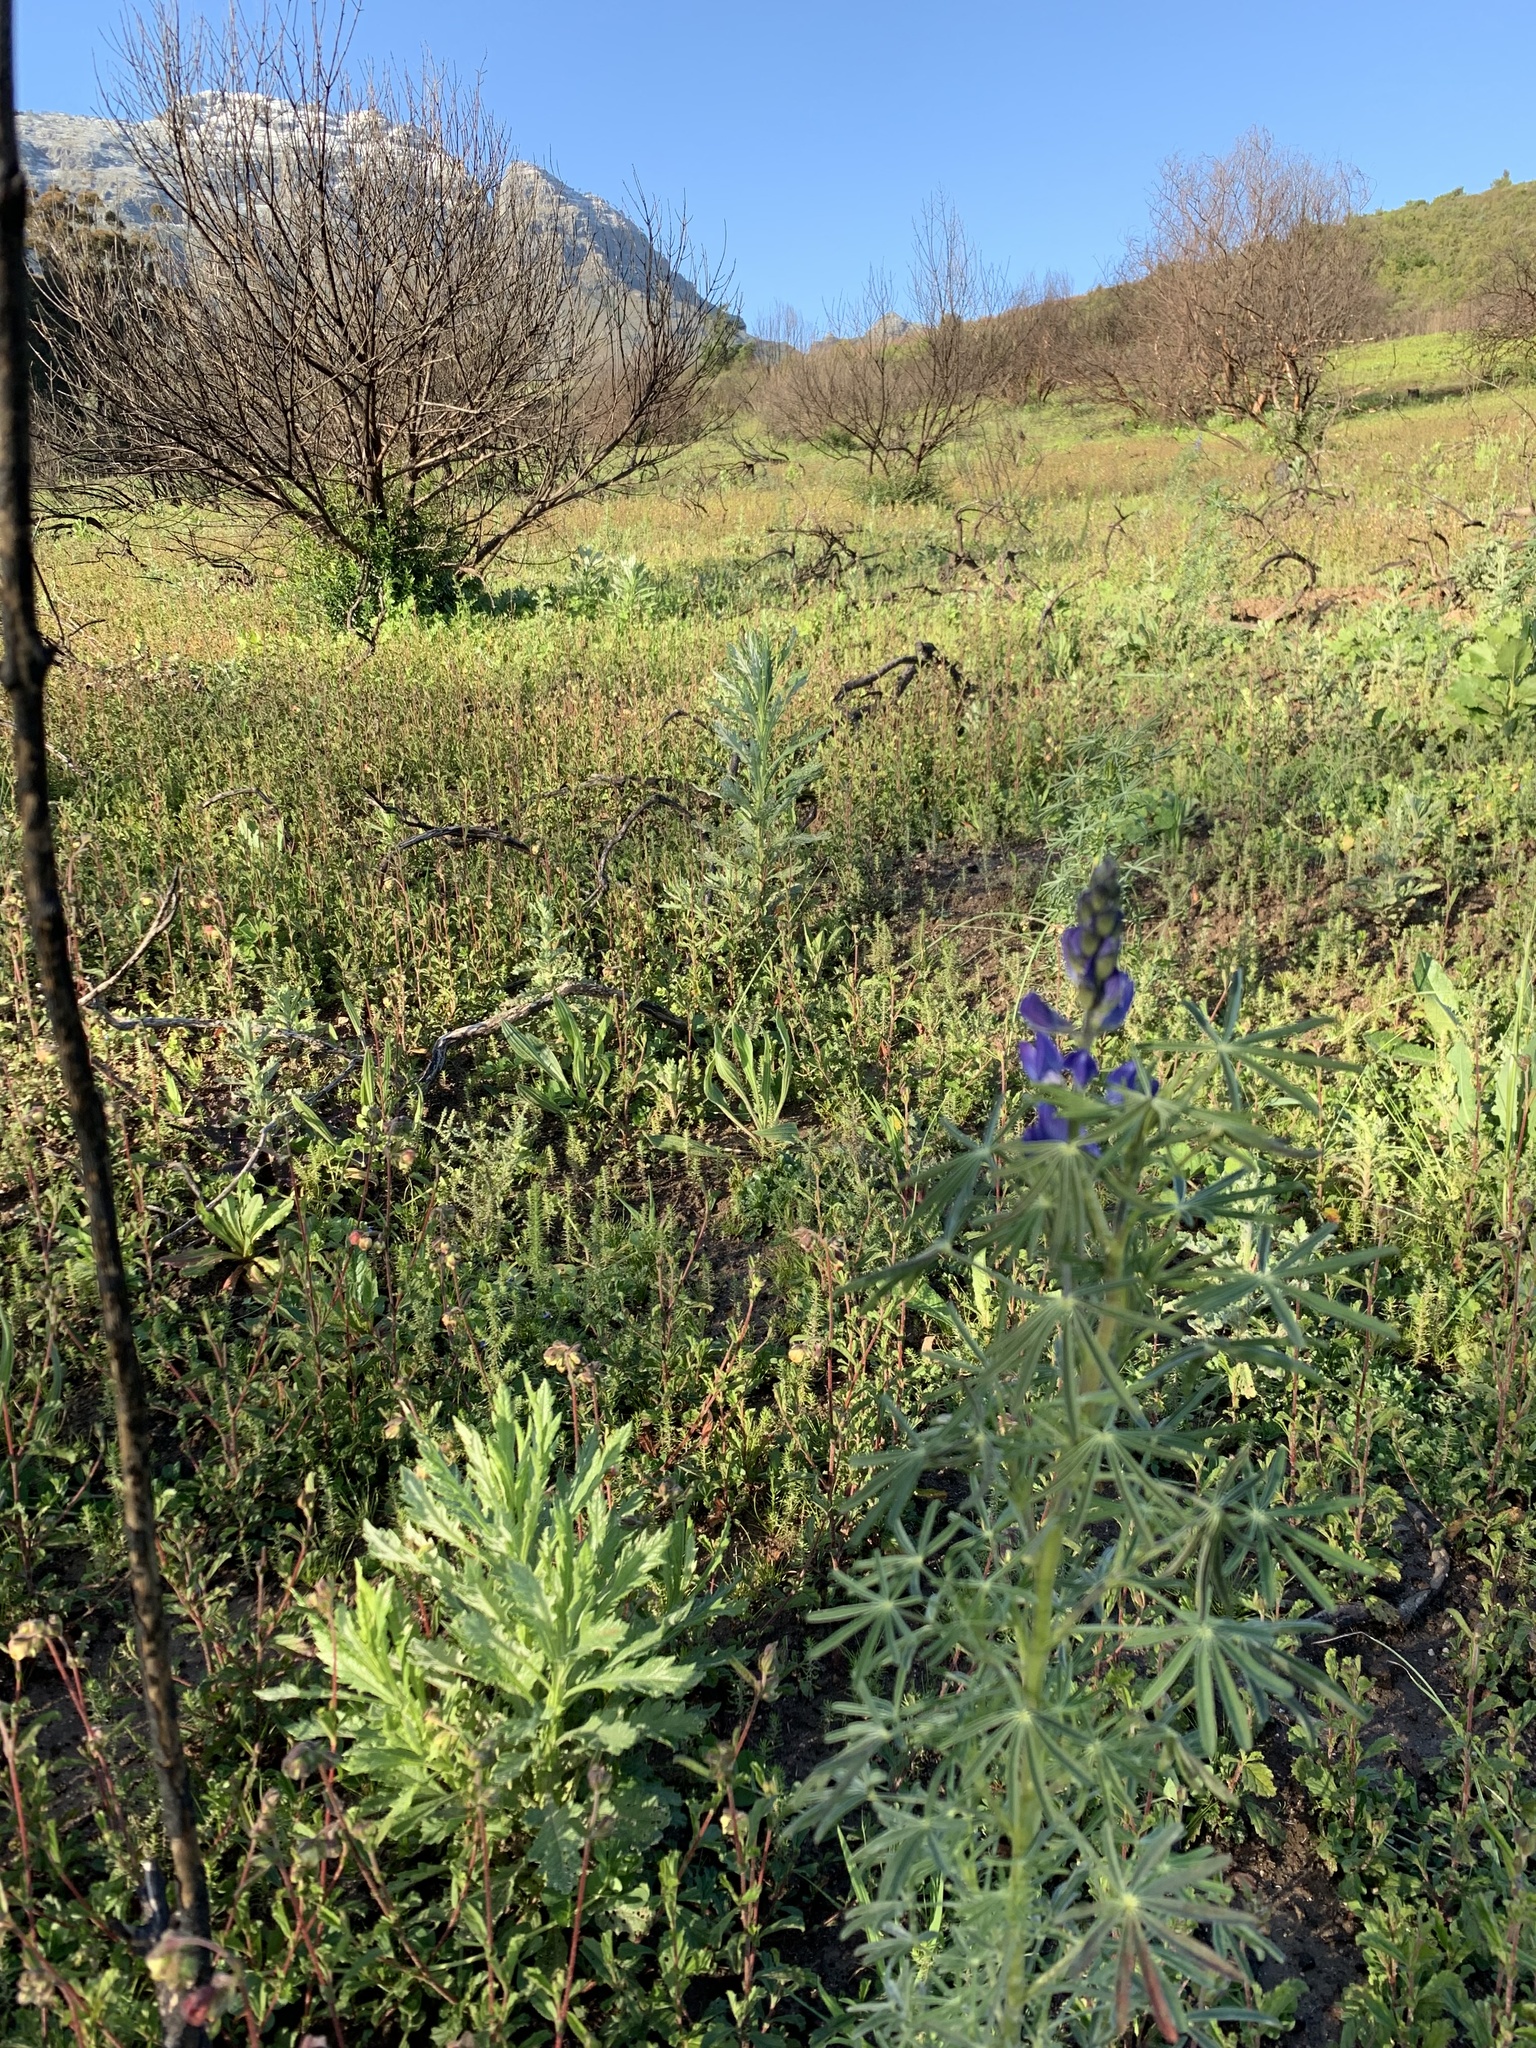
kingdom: Plantae
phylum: Tracheophyta
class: Magnoliopsida
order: Fabales
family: Fabaceae
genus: Lupinus
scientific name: Lupinus angustifolius
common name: Narrow-leaved lupin
